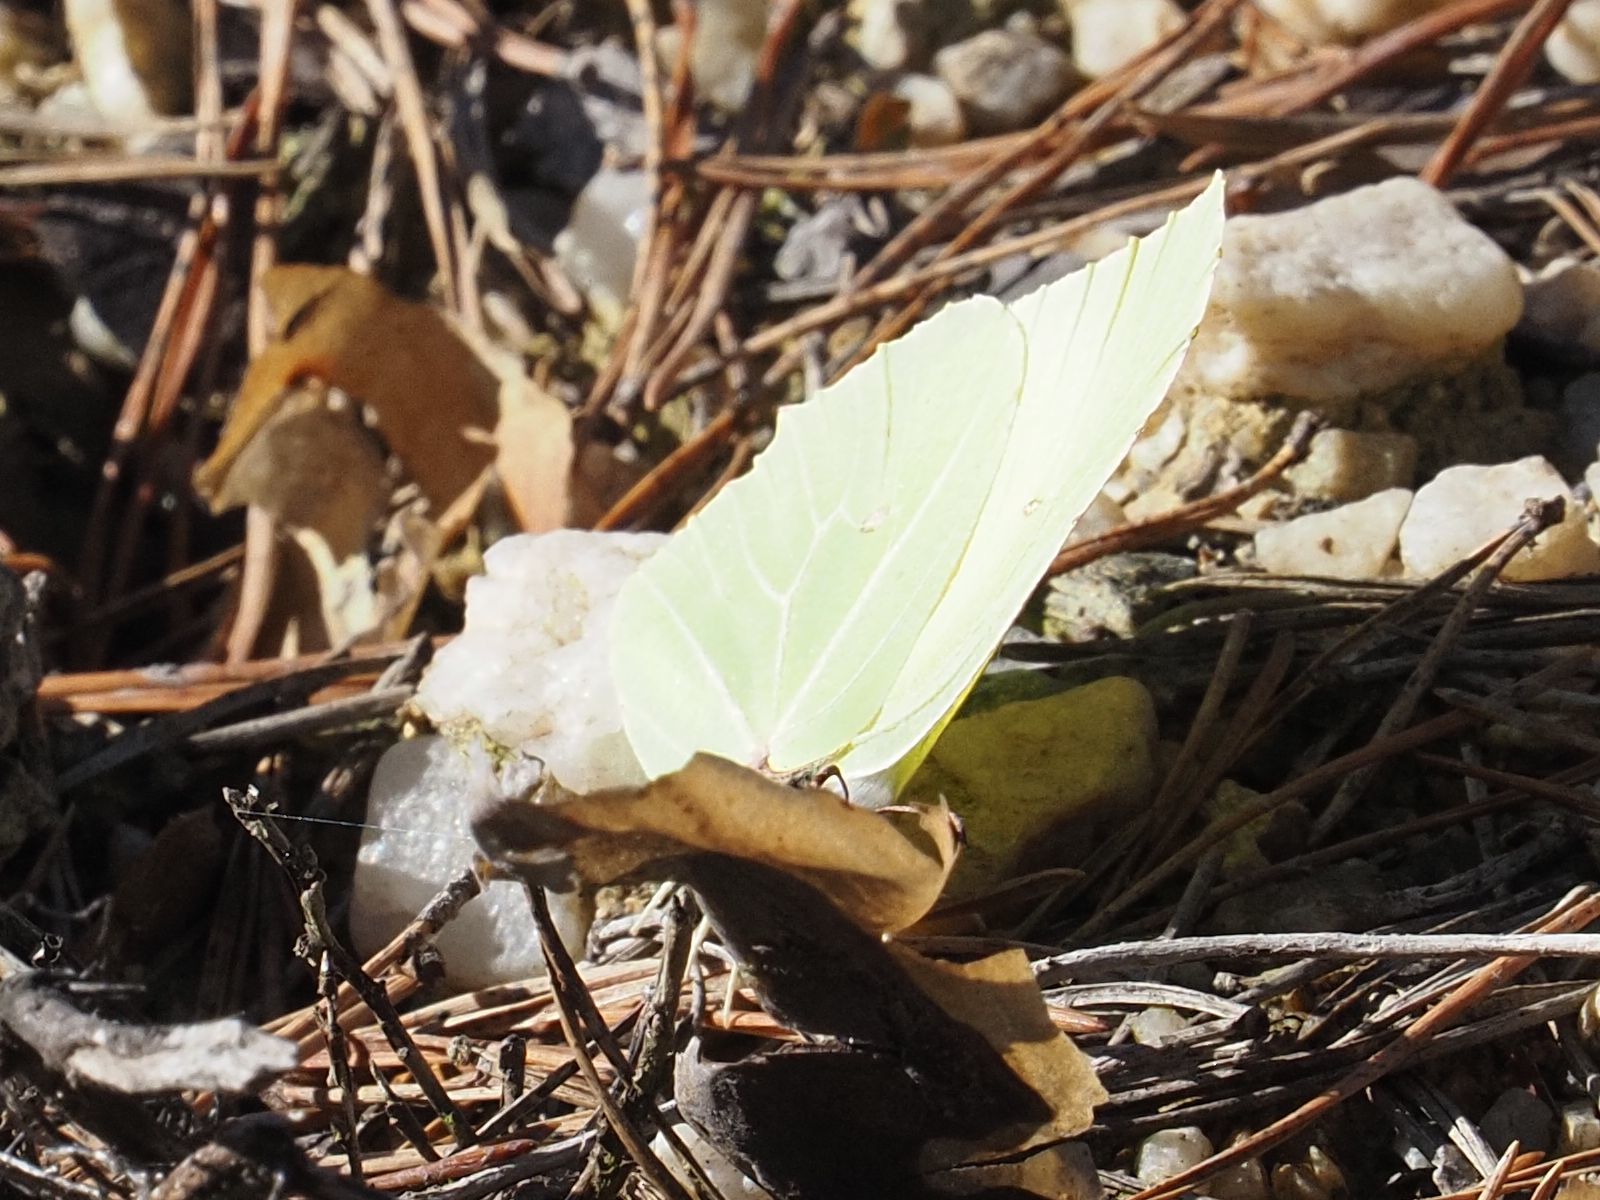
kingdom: Animalia
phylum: Arthropoda
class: Insecta
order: Lepidoptera
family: Pieridae
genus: Gonepteryx
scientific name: Gonepteryx rhamni
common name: Brimstone
